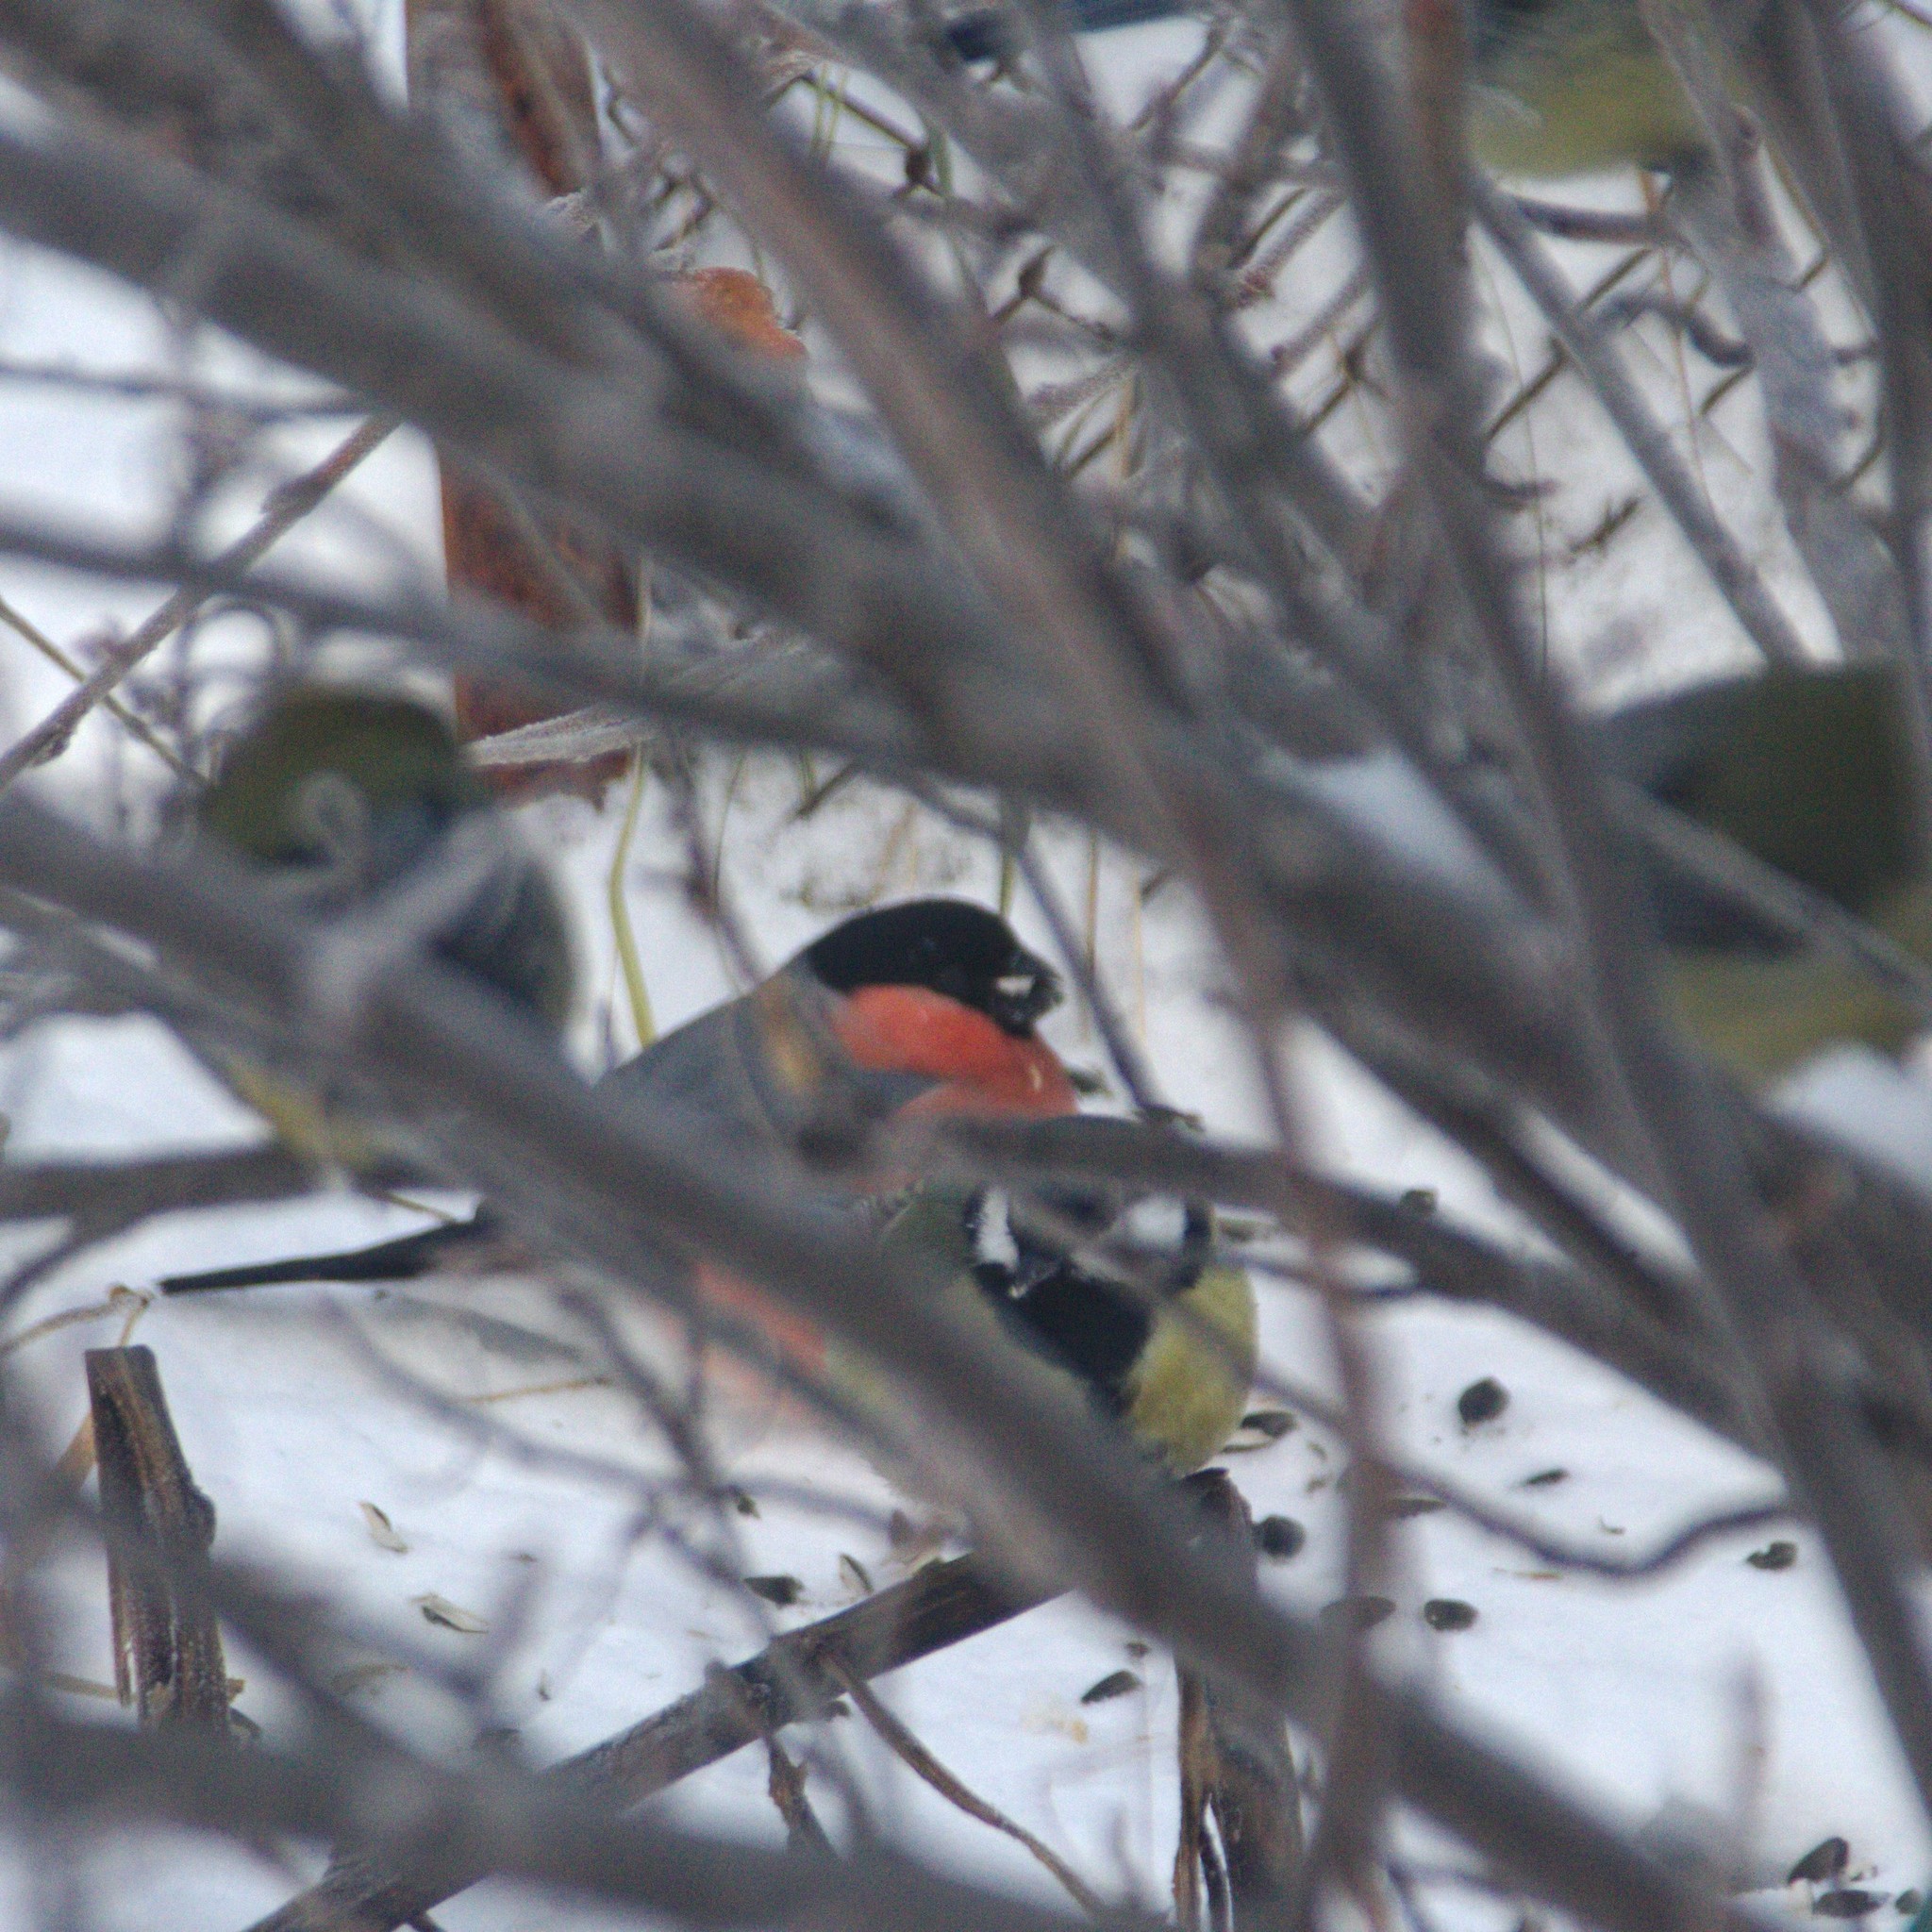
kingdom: Animalia
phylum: Chordata
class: Aves
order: Passeriformes
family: Fringillidae
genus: Pyrrhula
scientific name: Pyrrhula pyrrhula
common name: Eurasian bullfinch
